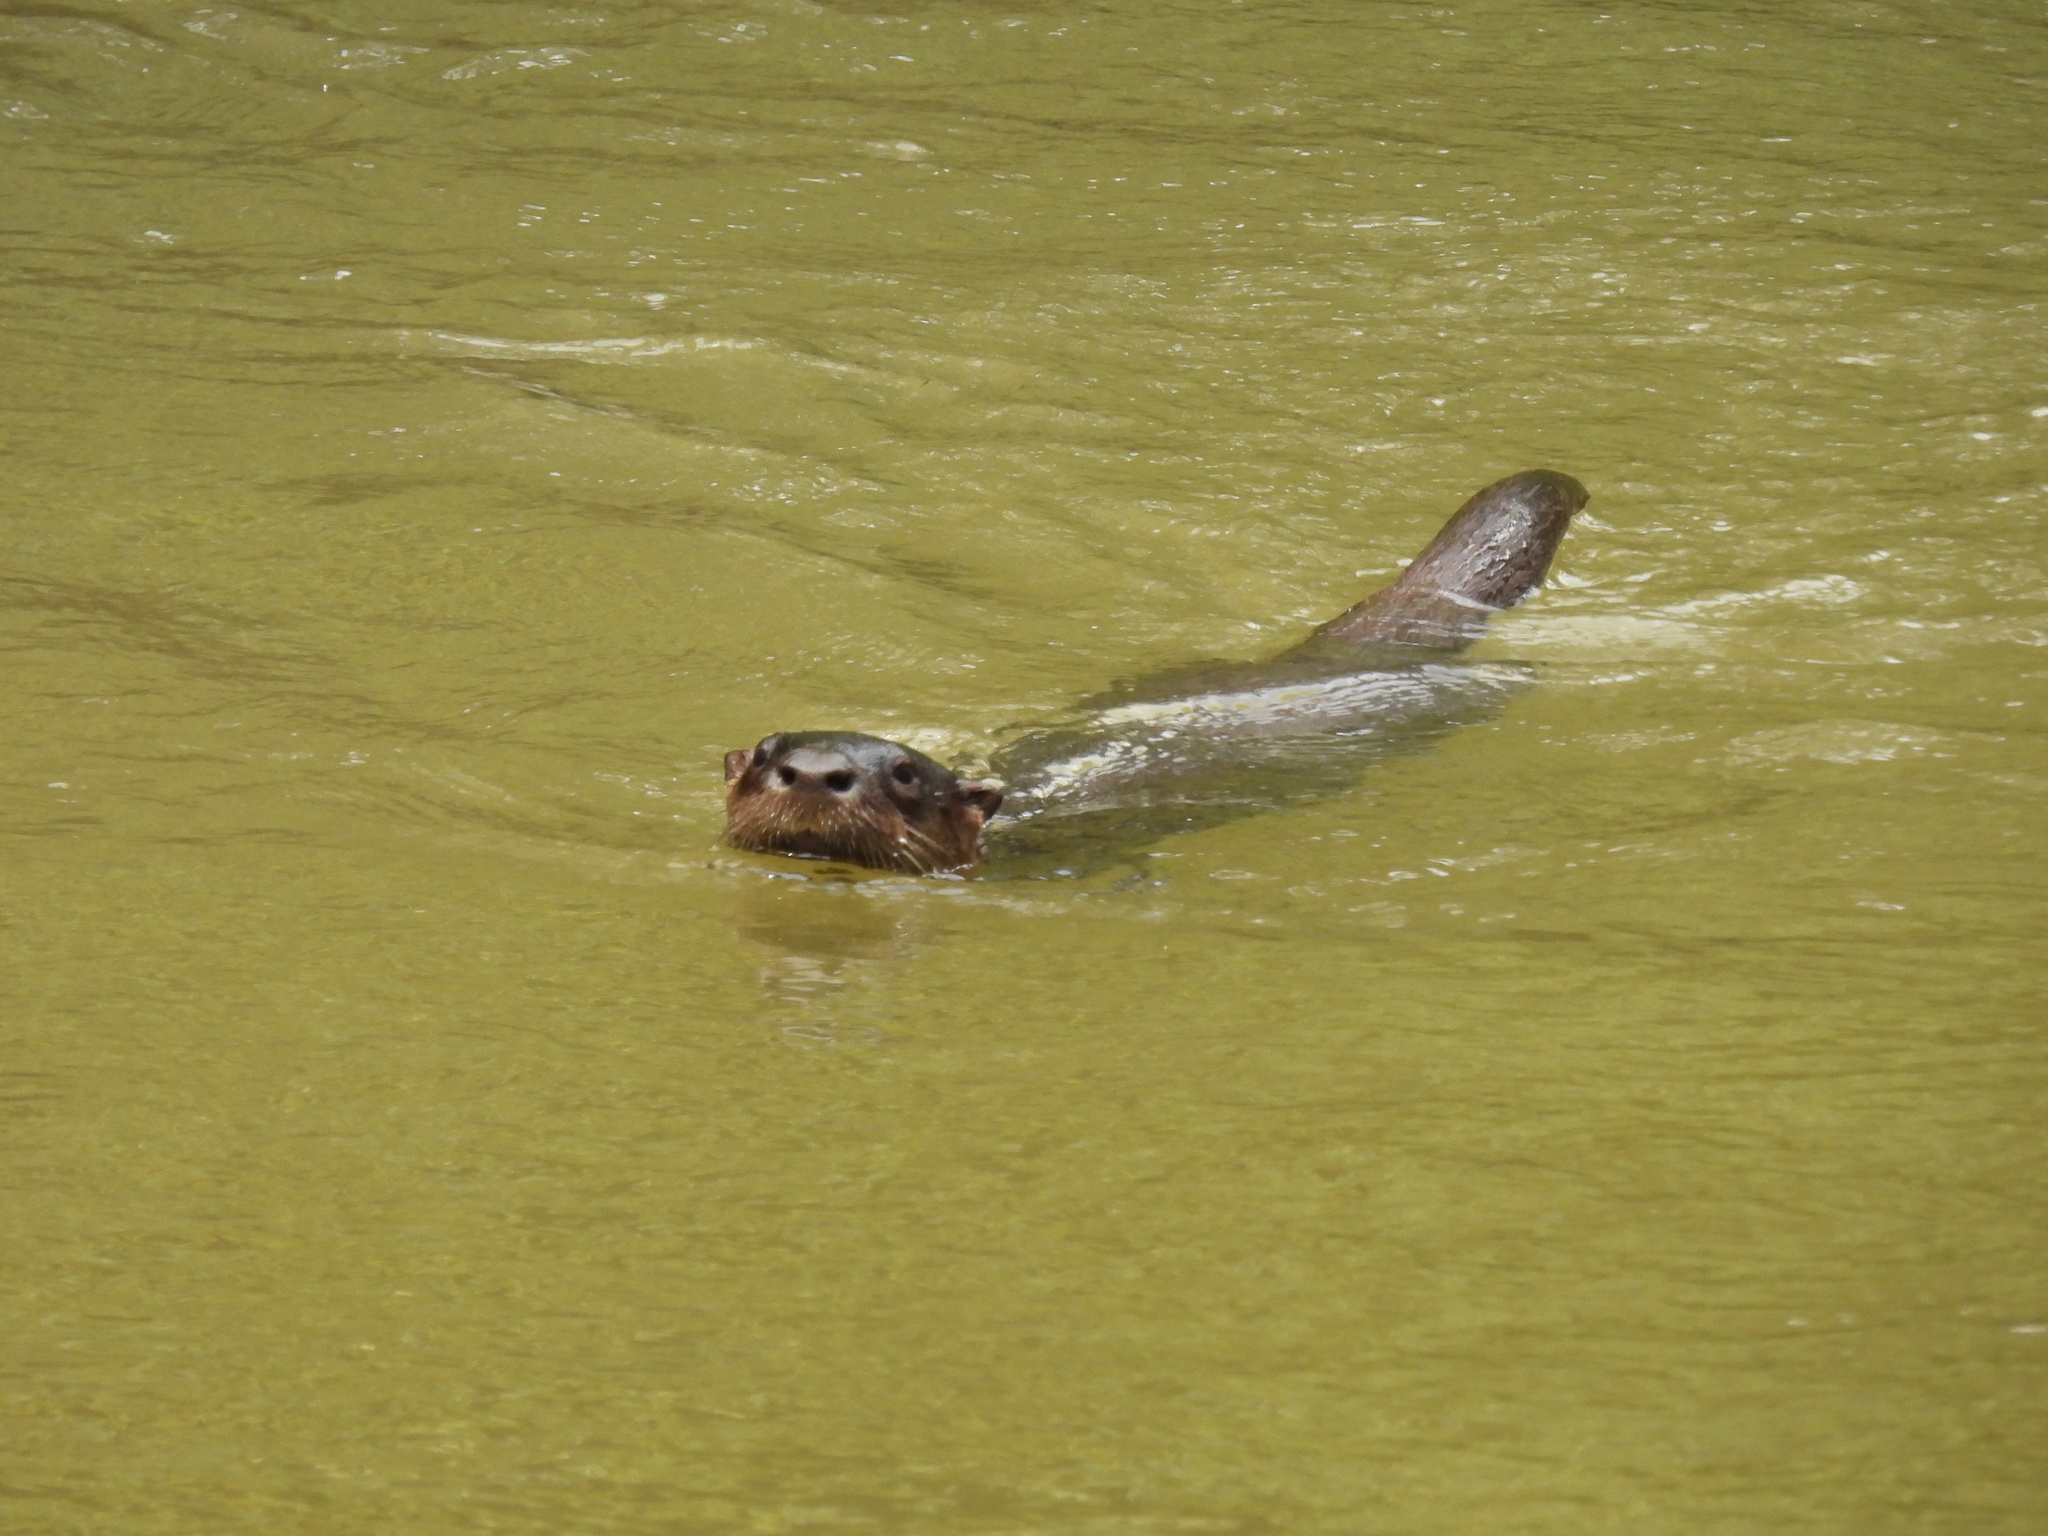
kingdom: Animalia
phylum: Chordata
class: Mammalia
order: Carnivora
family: Mustelidae
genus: Lontra
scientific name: Lontra canadensis
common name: North american river otter
